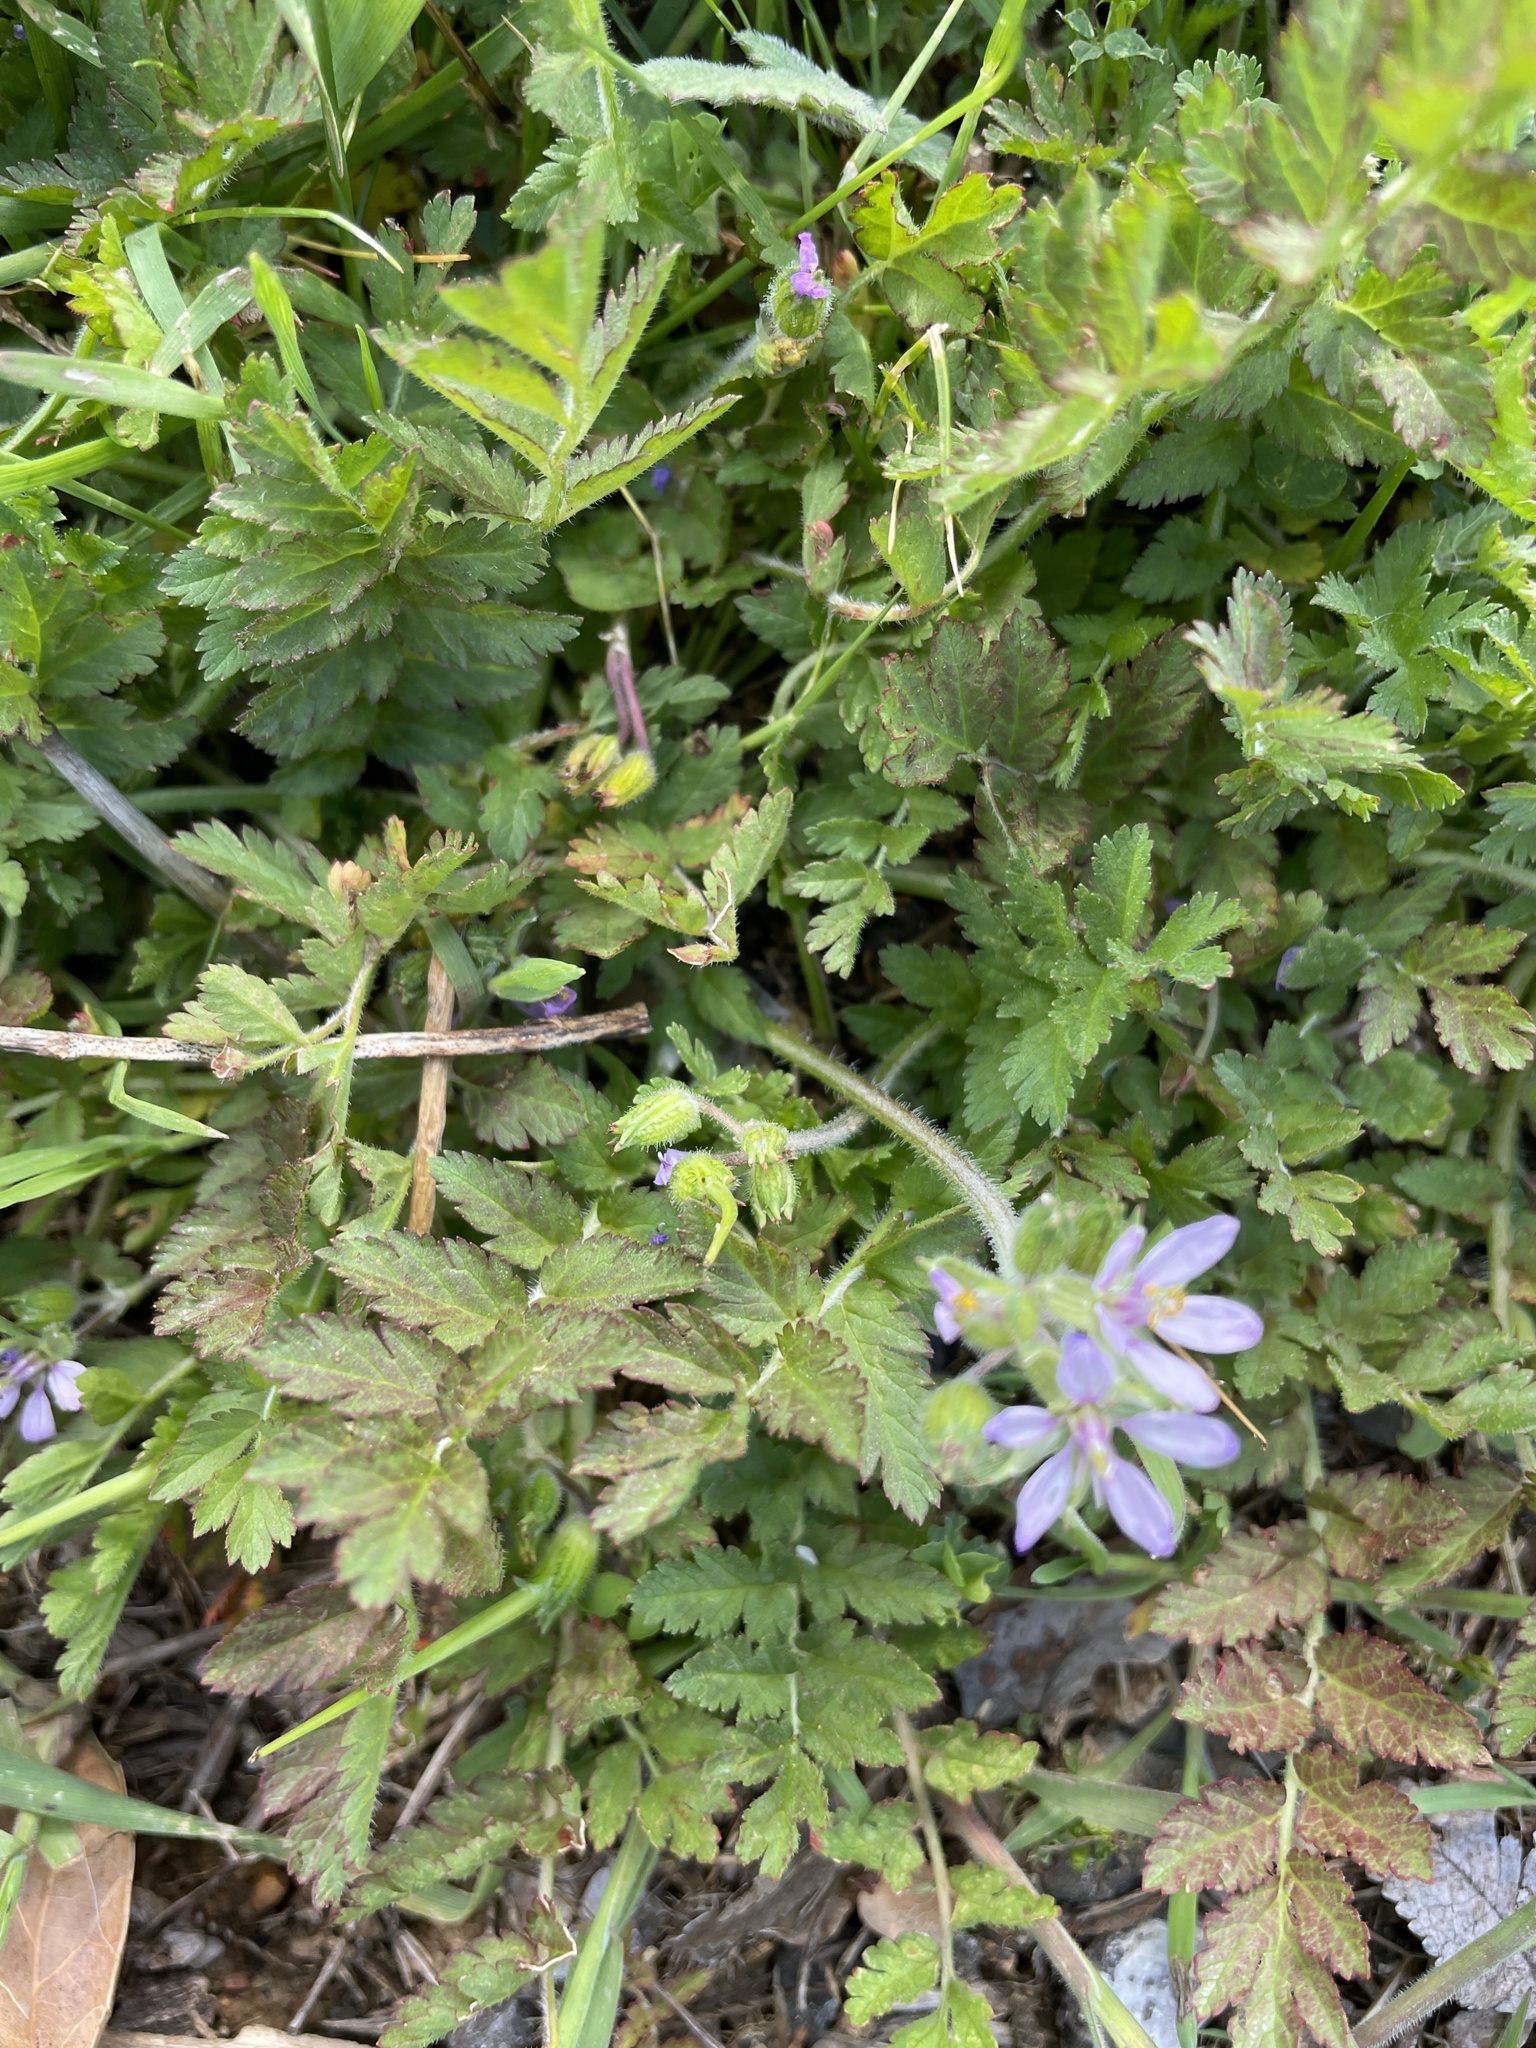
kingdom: Plantae
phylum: Tracheophyta
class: Magnoliopsida
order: Geraniales
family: Geraniaceae
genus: Erodium
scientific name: Erodium moschatum
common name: Musk stork's-bill
